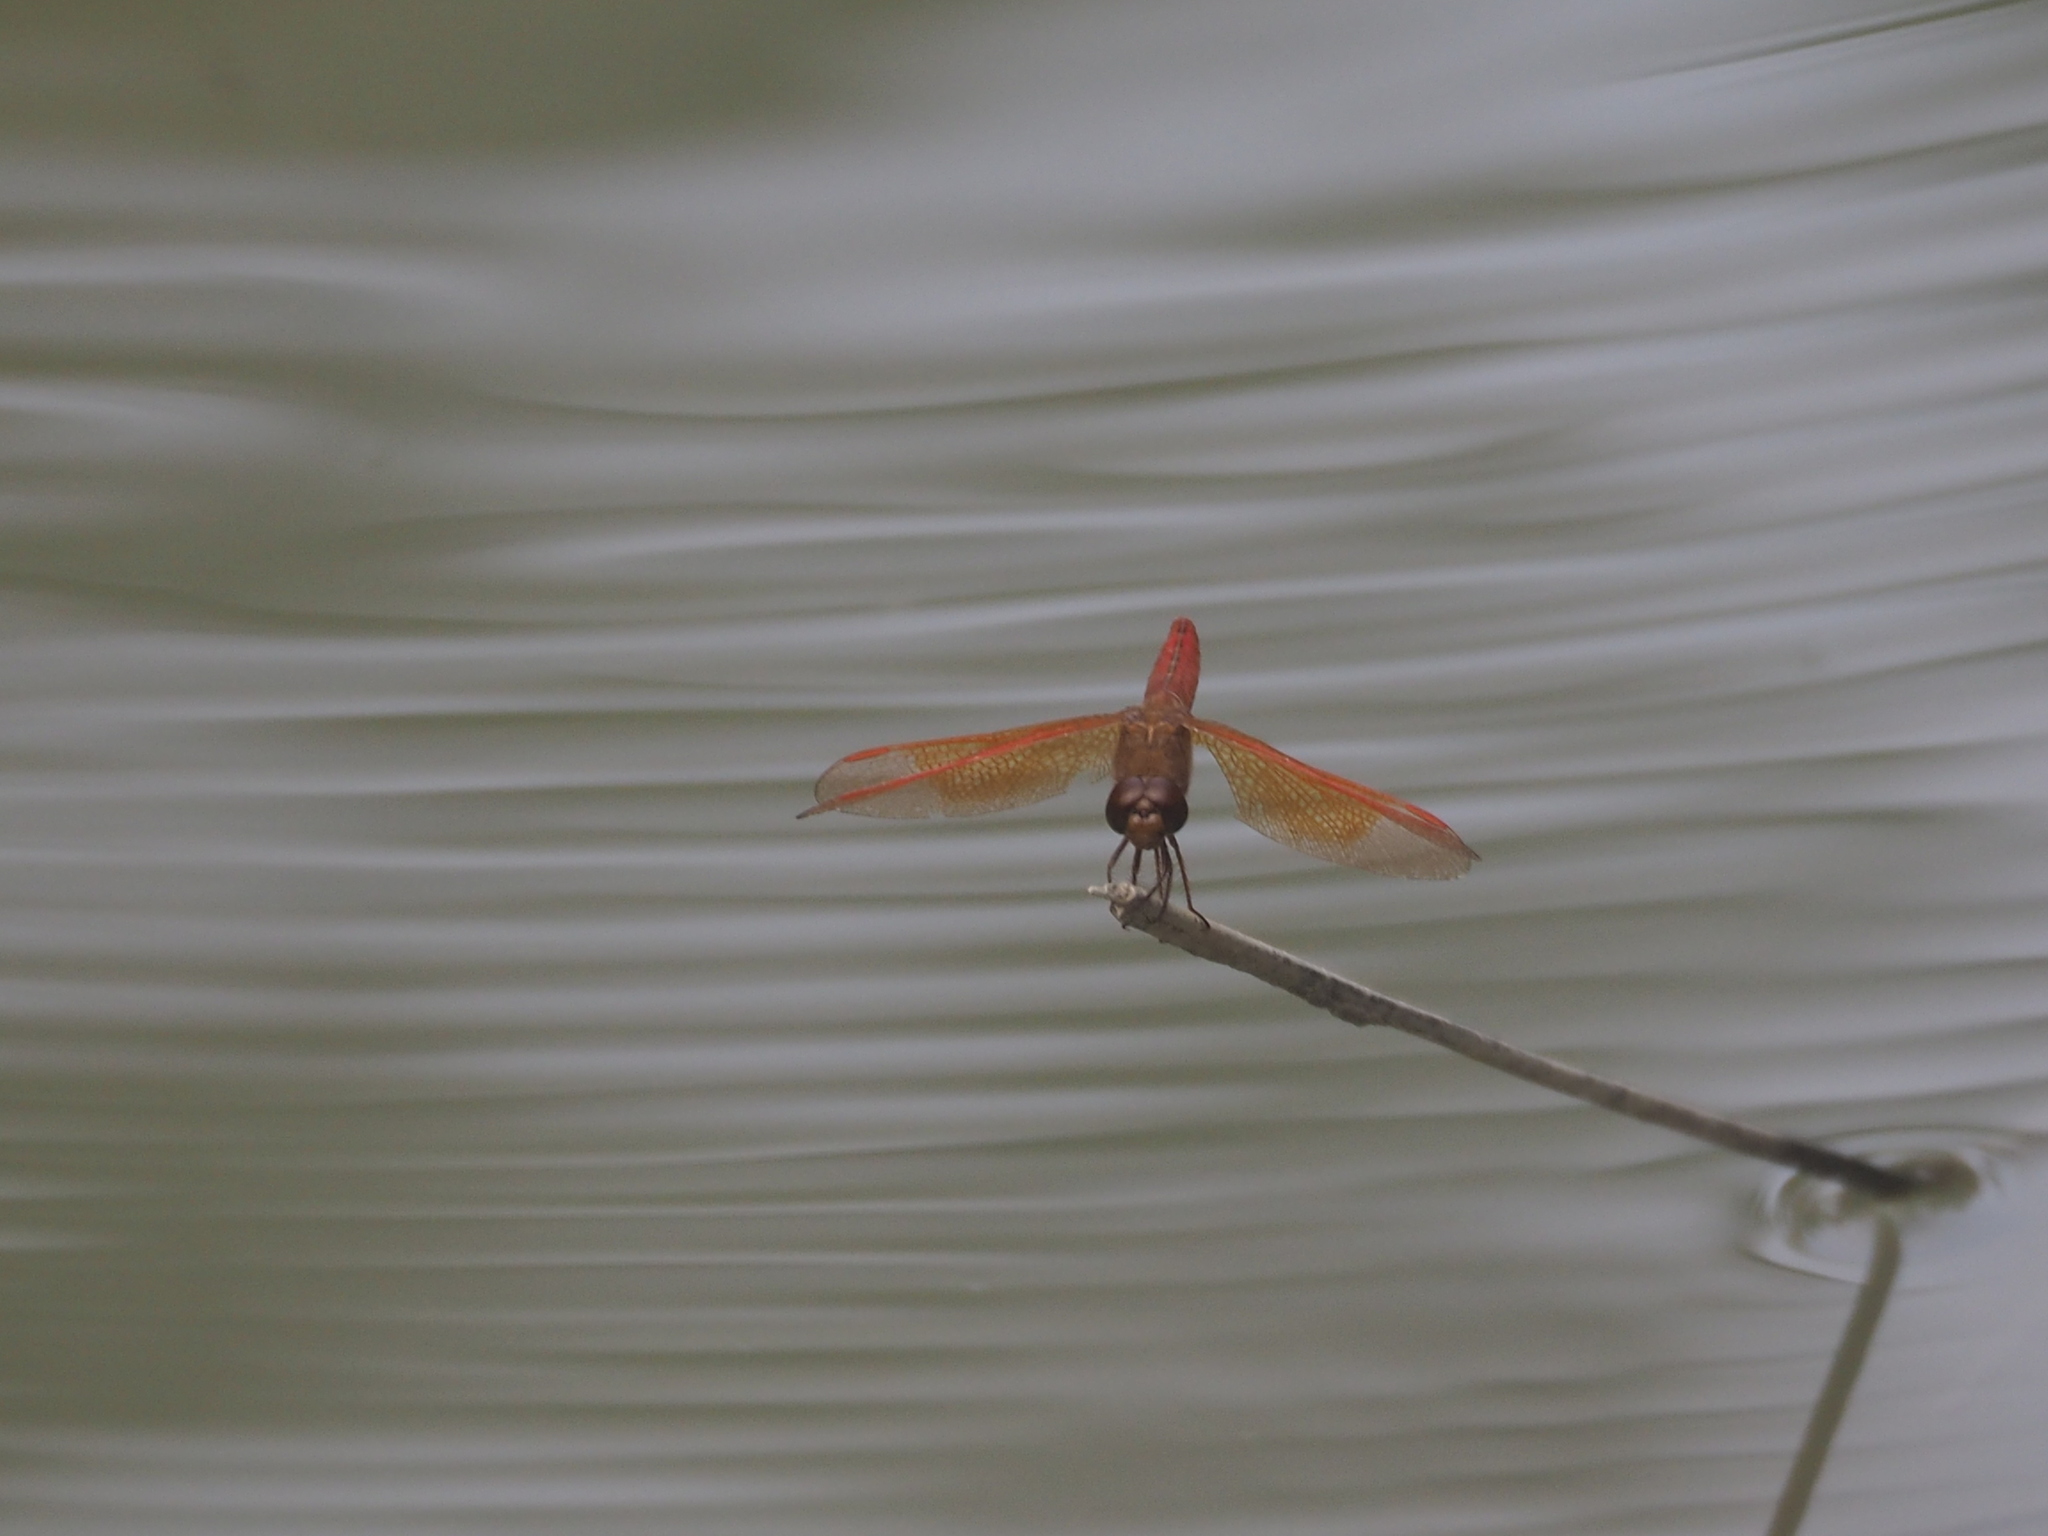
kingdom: Animalia
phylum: Arthropoda
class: Insecta
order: Odonata
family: Libellulidae
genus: Brachythemis
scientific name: Brachythemis contaminata
